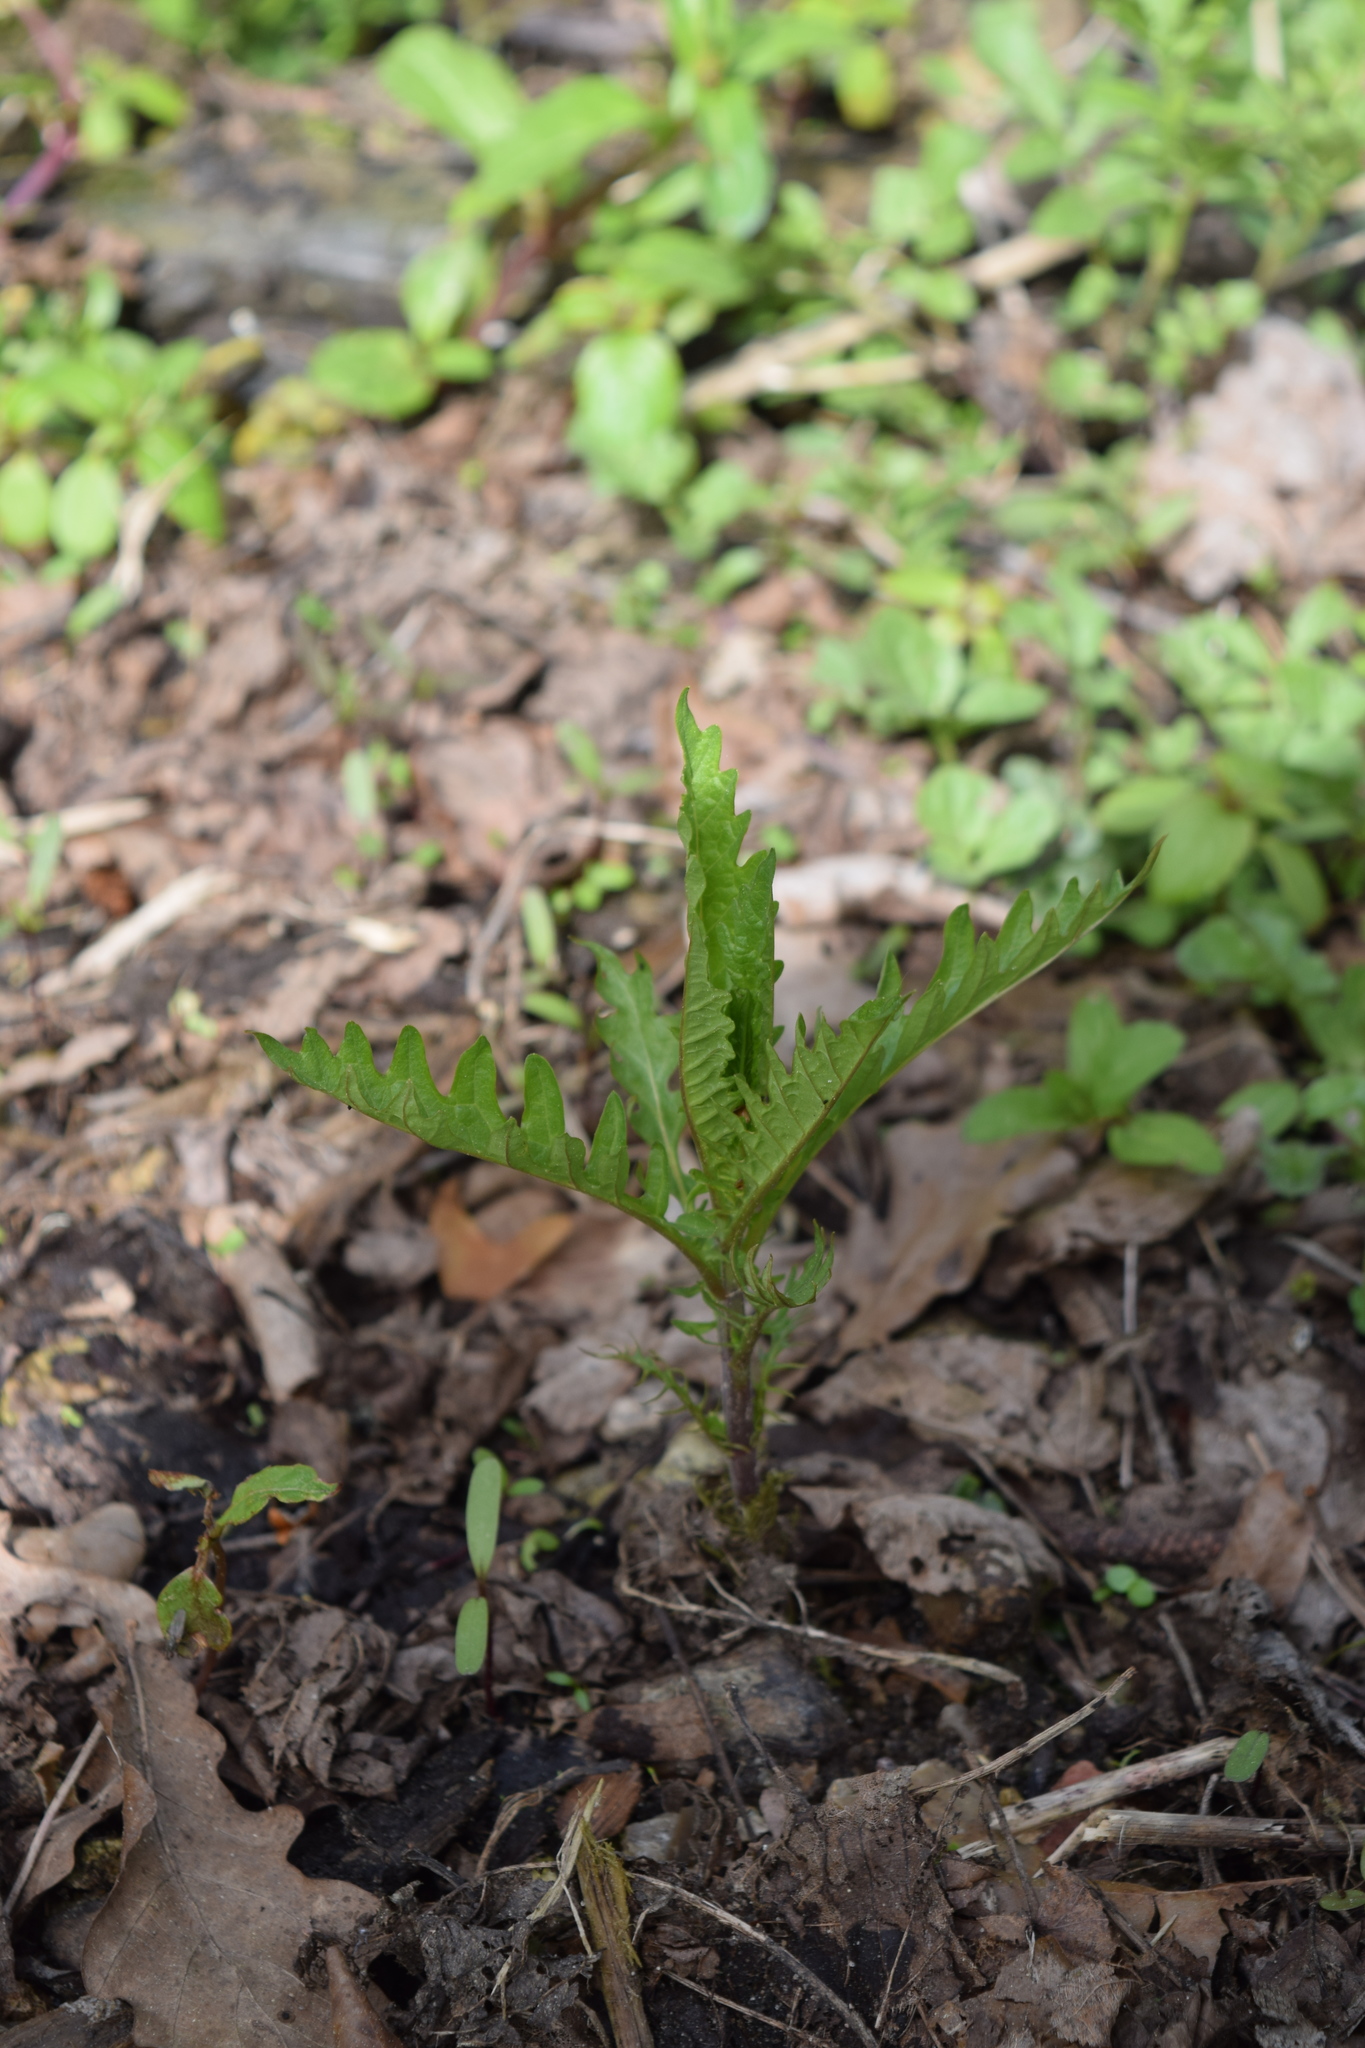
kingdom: Plantae
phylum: Tracheophyta
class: Magnoliopsida
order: Lamiales
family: Lamiaceae
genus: Lycopus
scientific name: Lycopus europaeus
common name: European bugleweed
